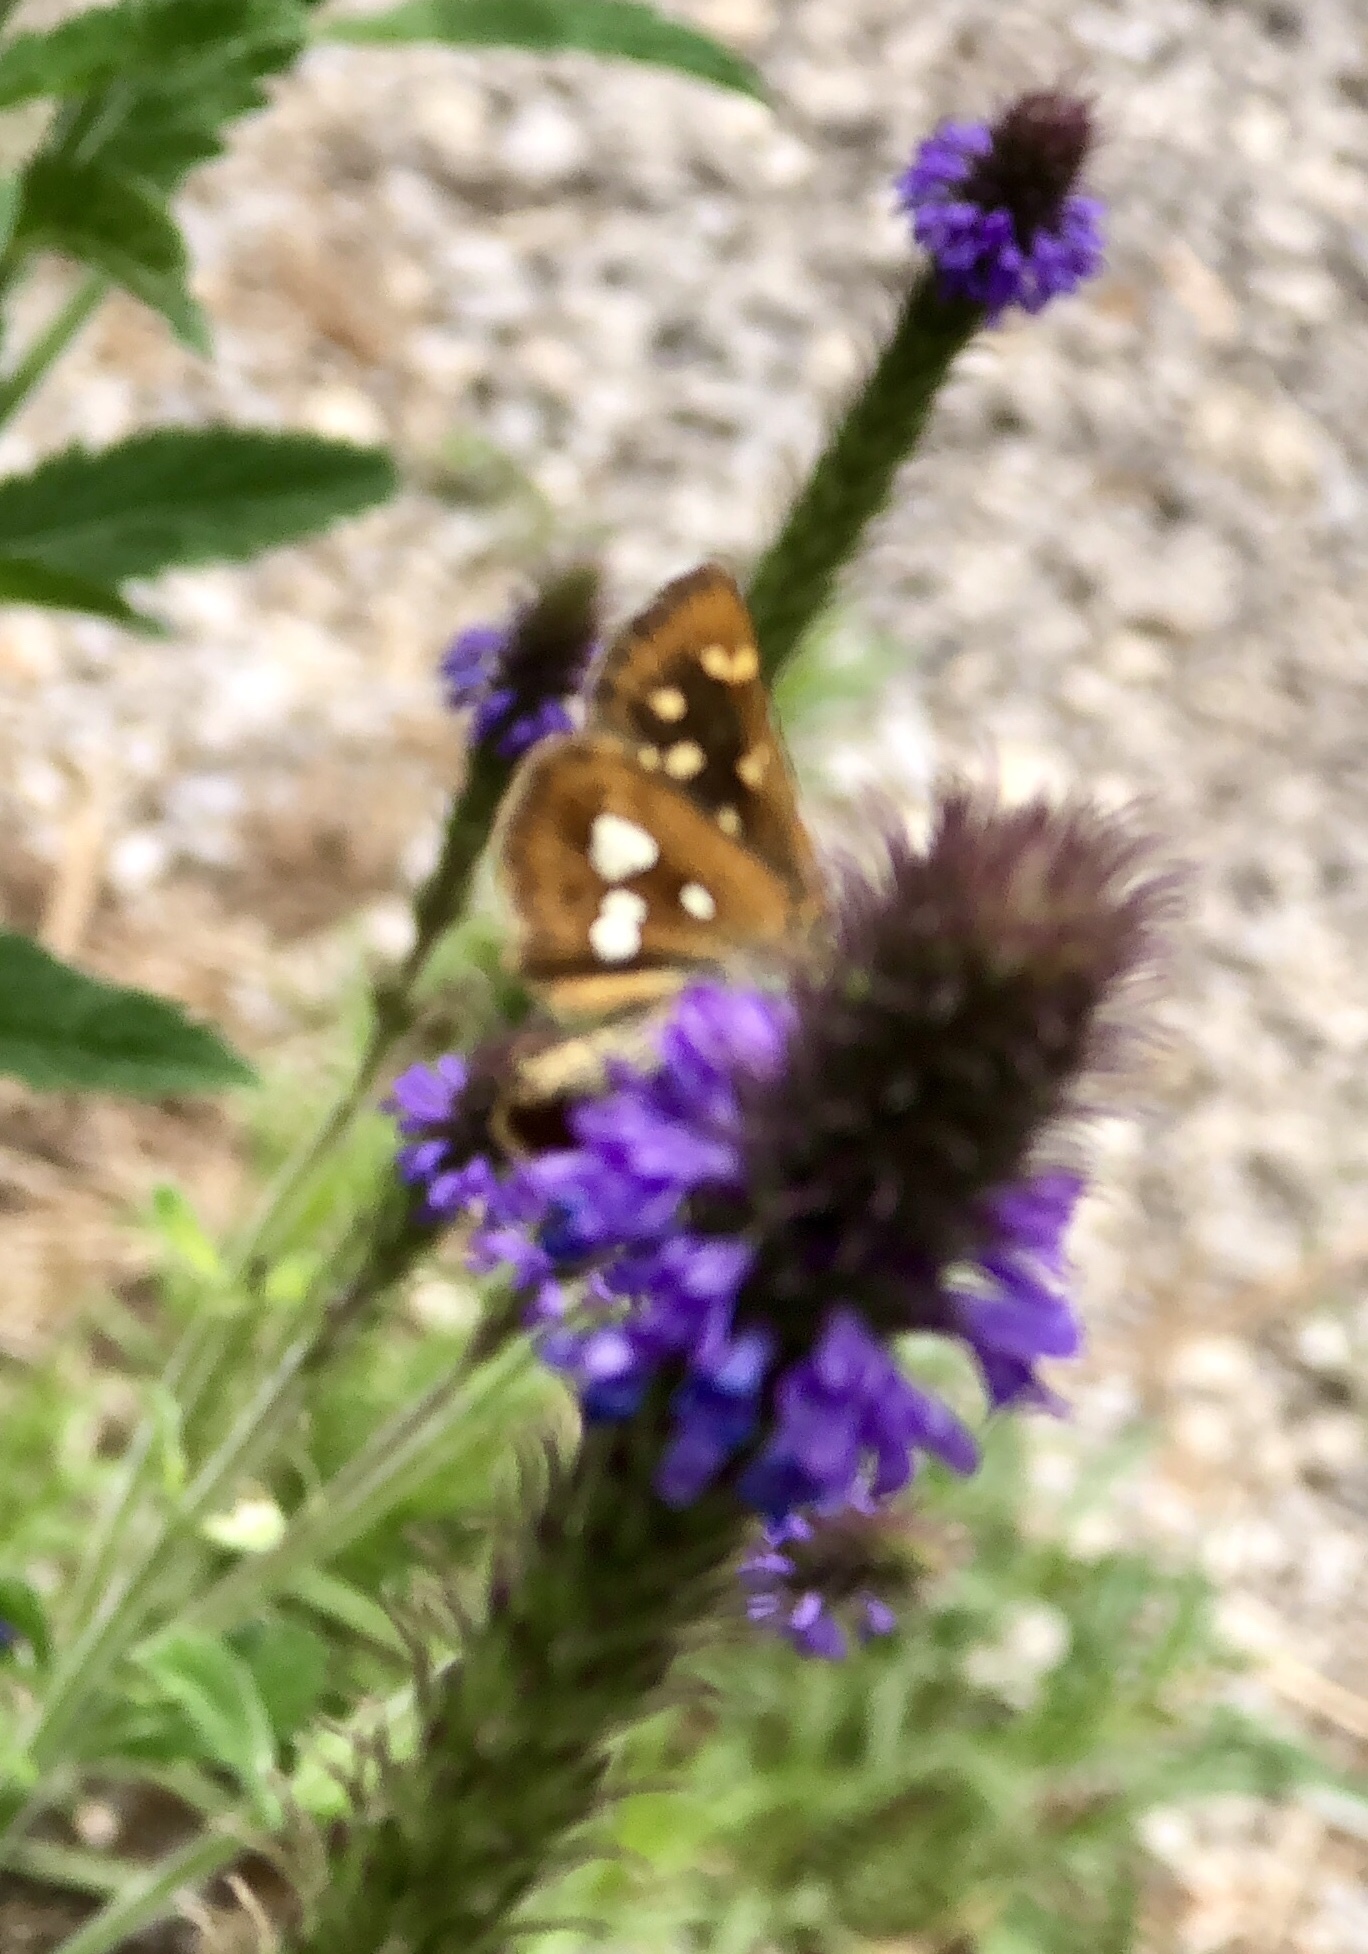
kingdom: Animalia
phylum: Arthropoda
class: Insecta
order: Lepidoptera
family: Hesperiidae
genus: Piruna
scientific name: Piruna polingii
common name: Four-spotted skipperling
